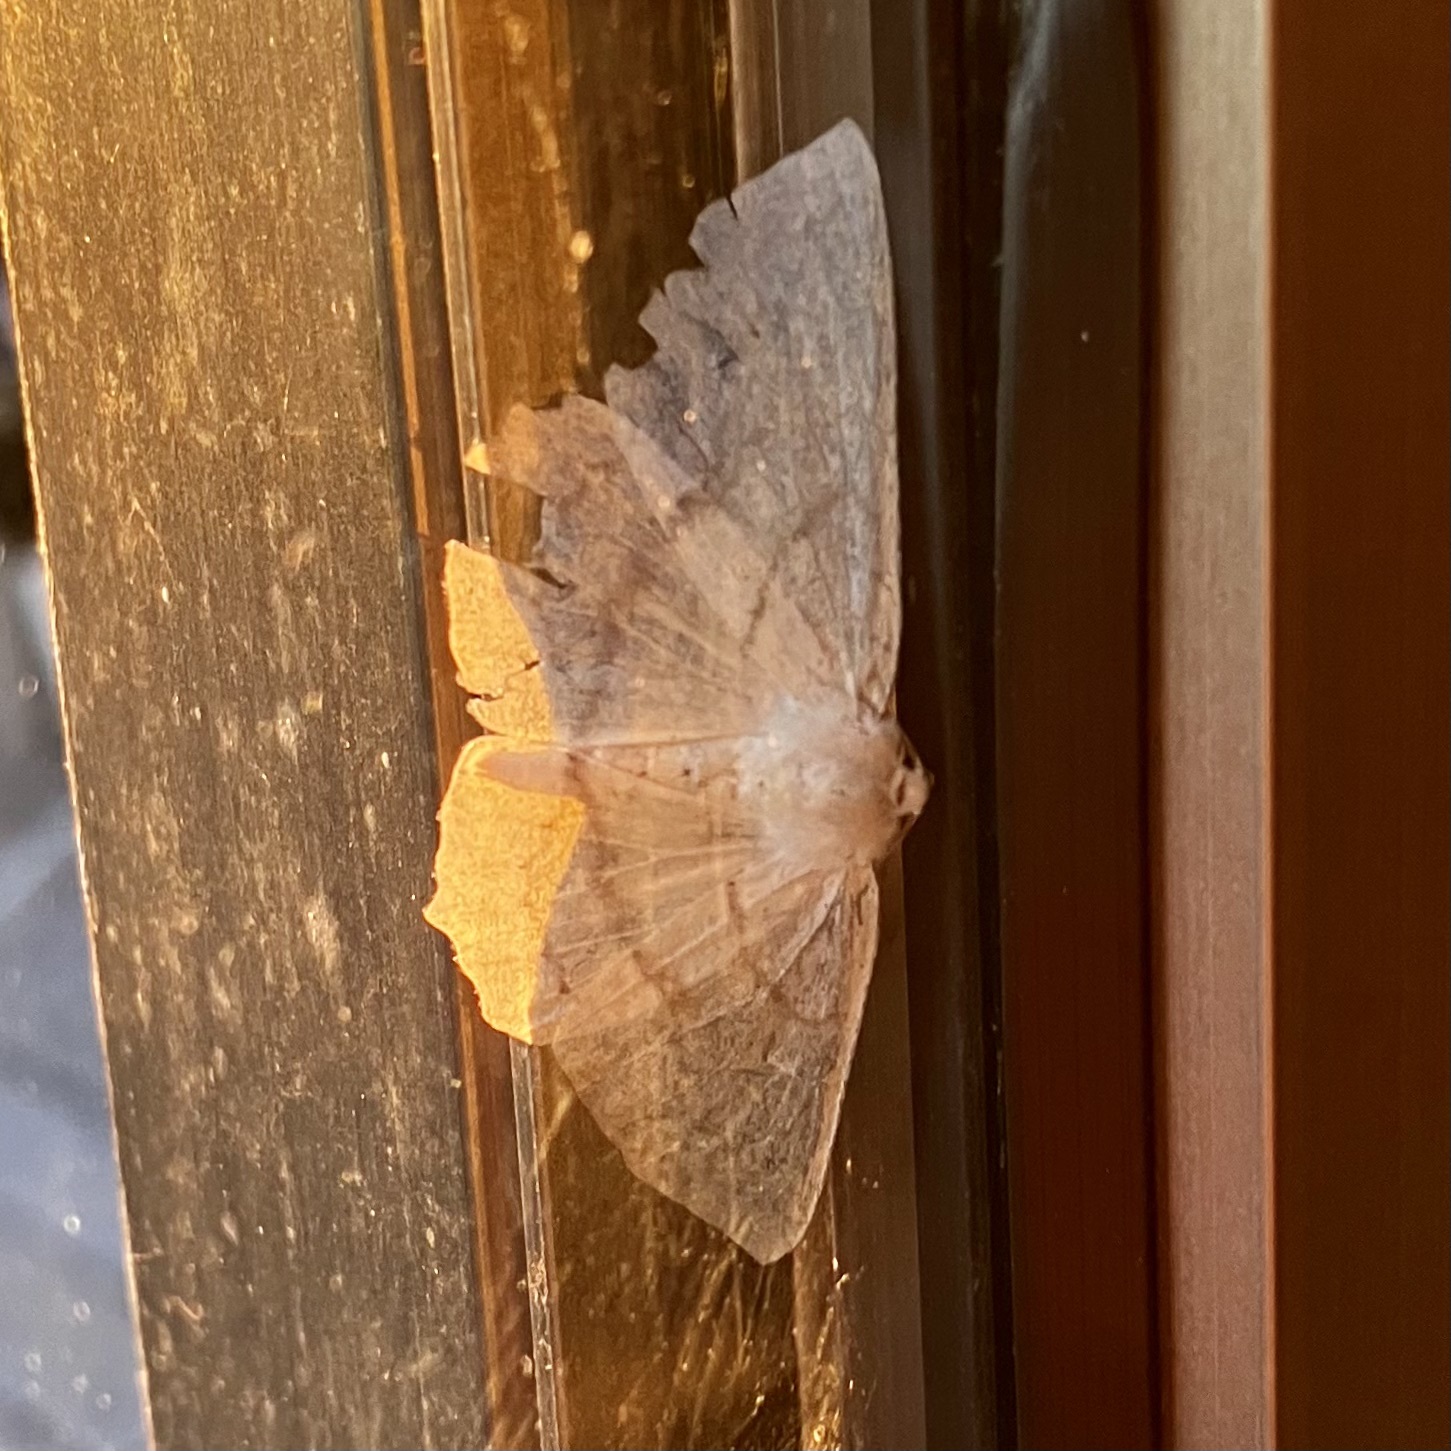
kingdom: Animalia
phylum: Arthropoda
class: Insecta
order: Lepidoptera
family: Geometridae
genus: Sabulodes
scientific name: Sabulodes aegrotata
